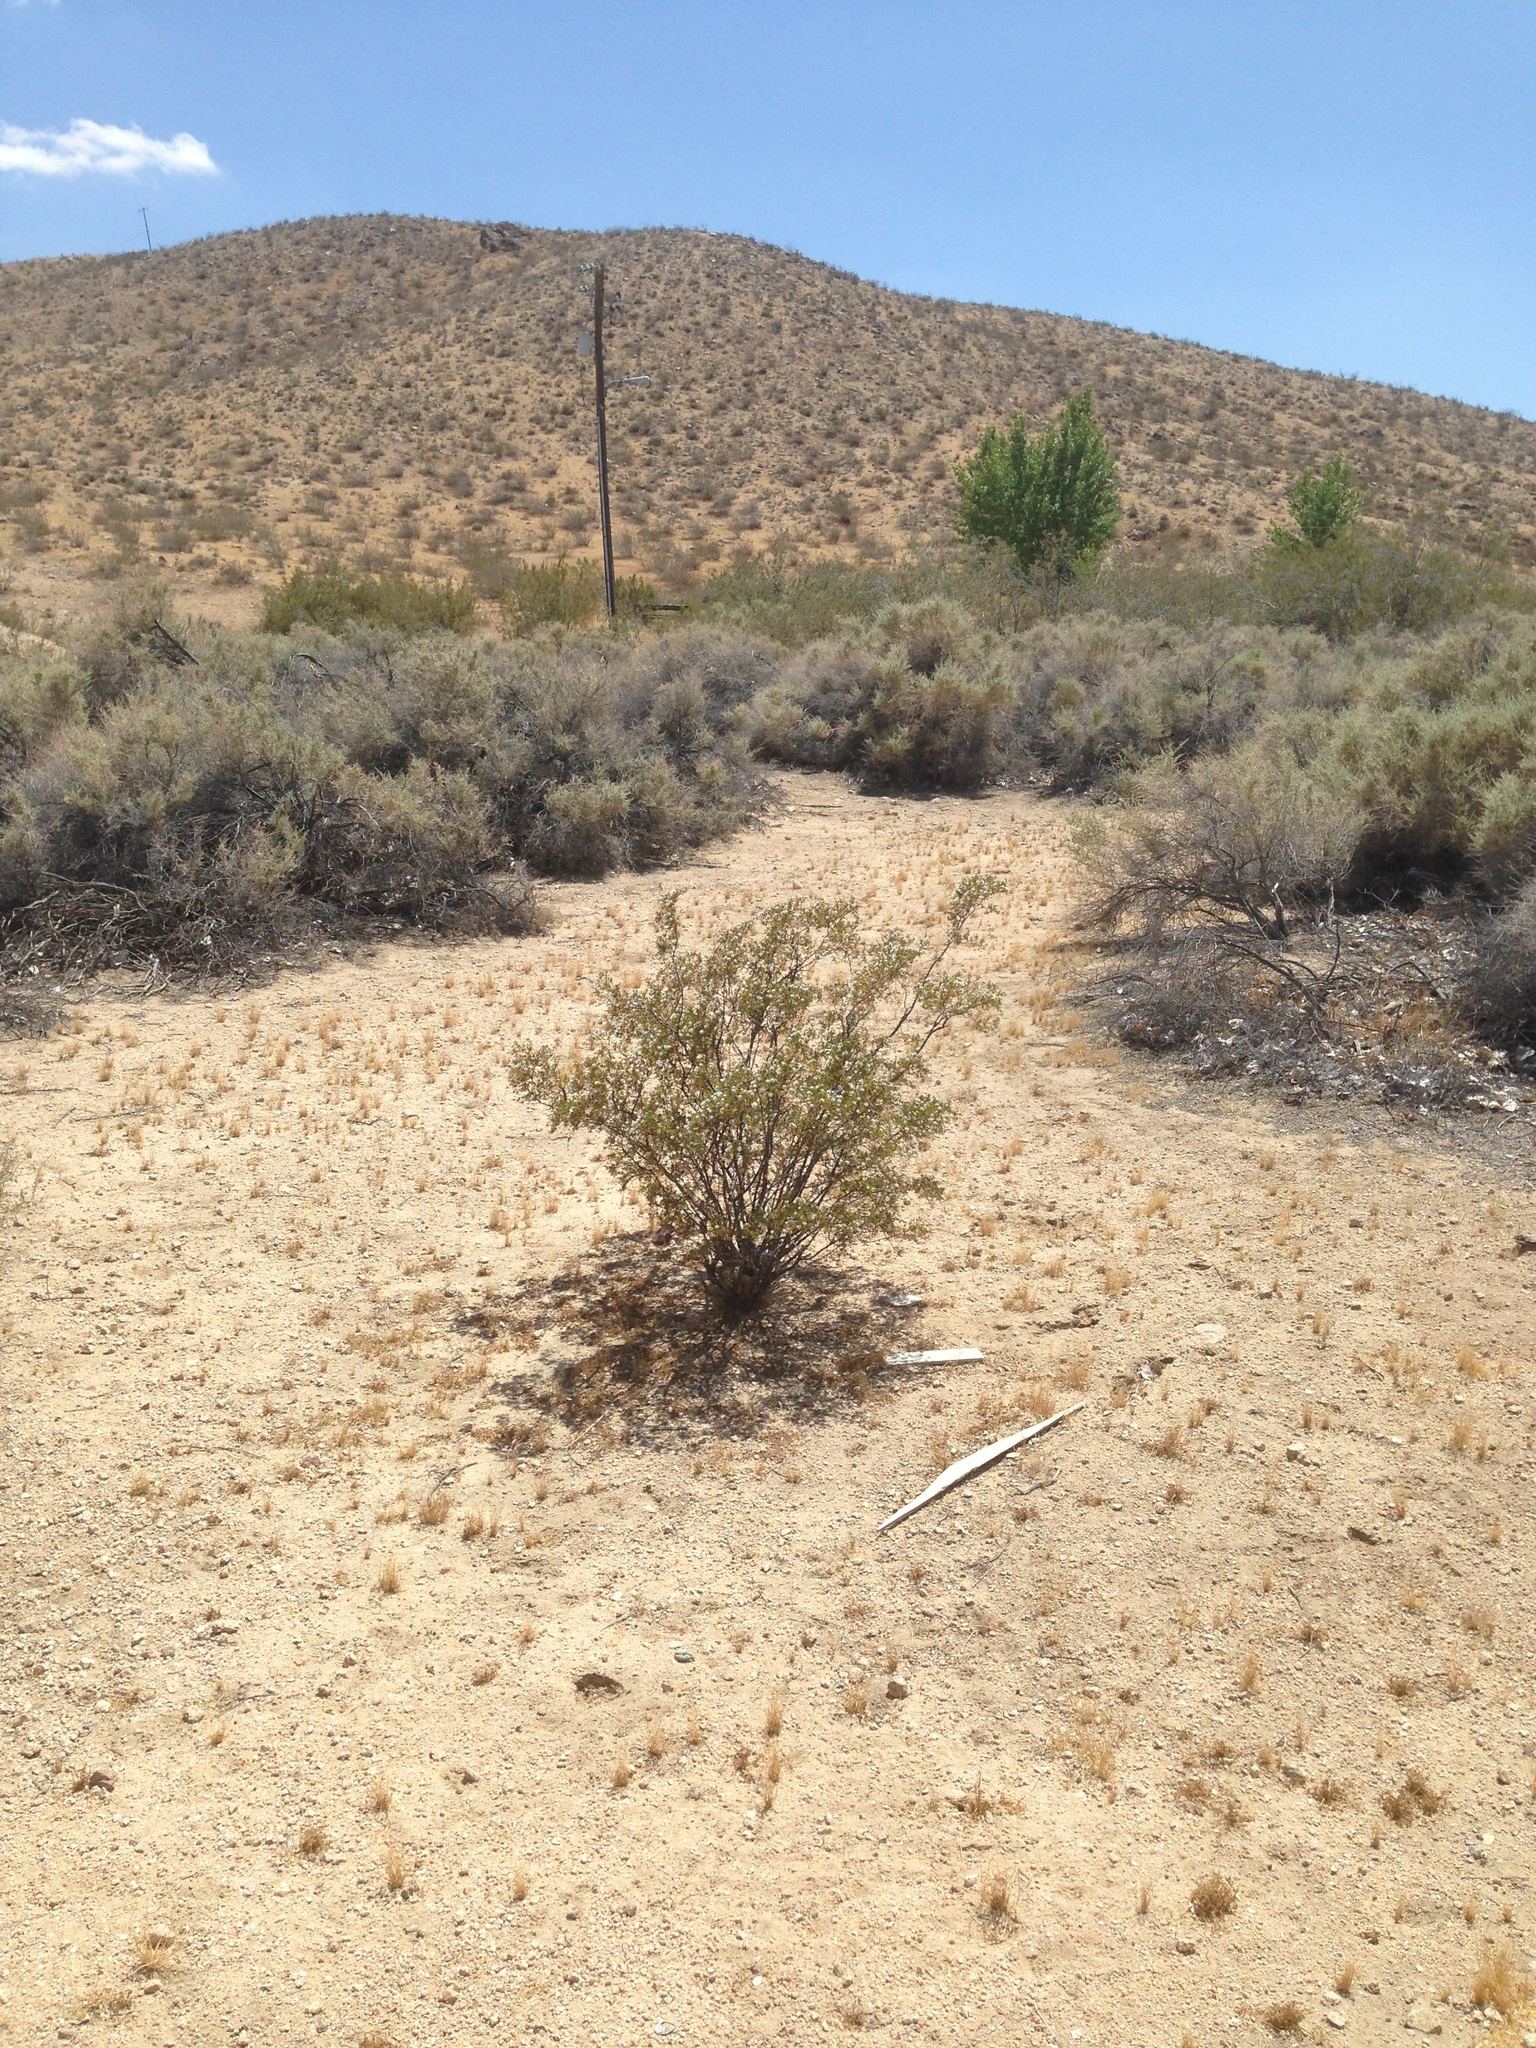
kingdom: Plantae
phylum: Tracheophyta
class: Magnoliopsida
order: Zygophyllales
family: Zygophyllaceae
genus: Larrea
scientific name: Larrea tridentata
